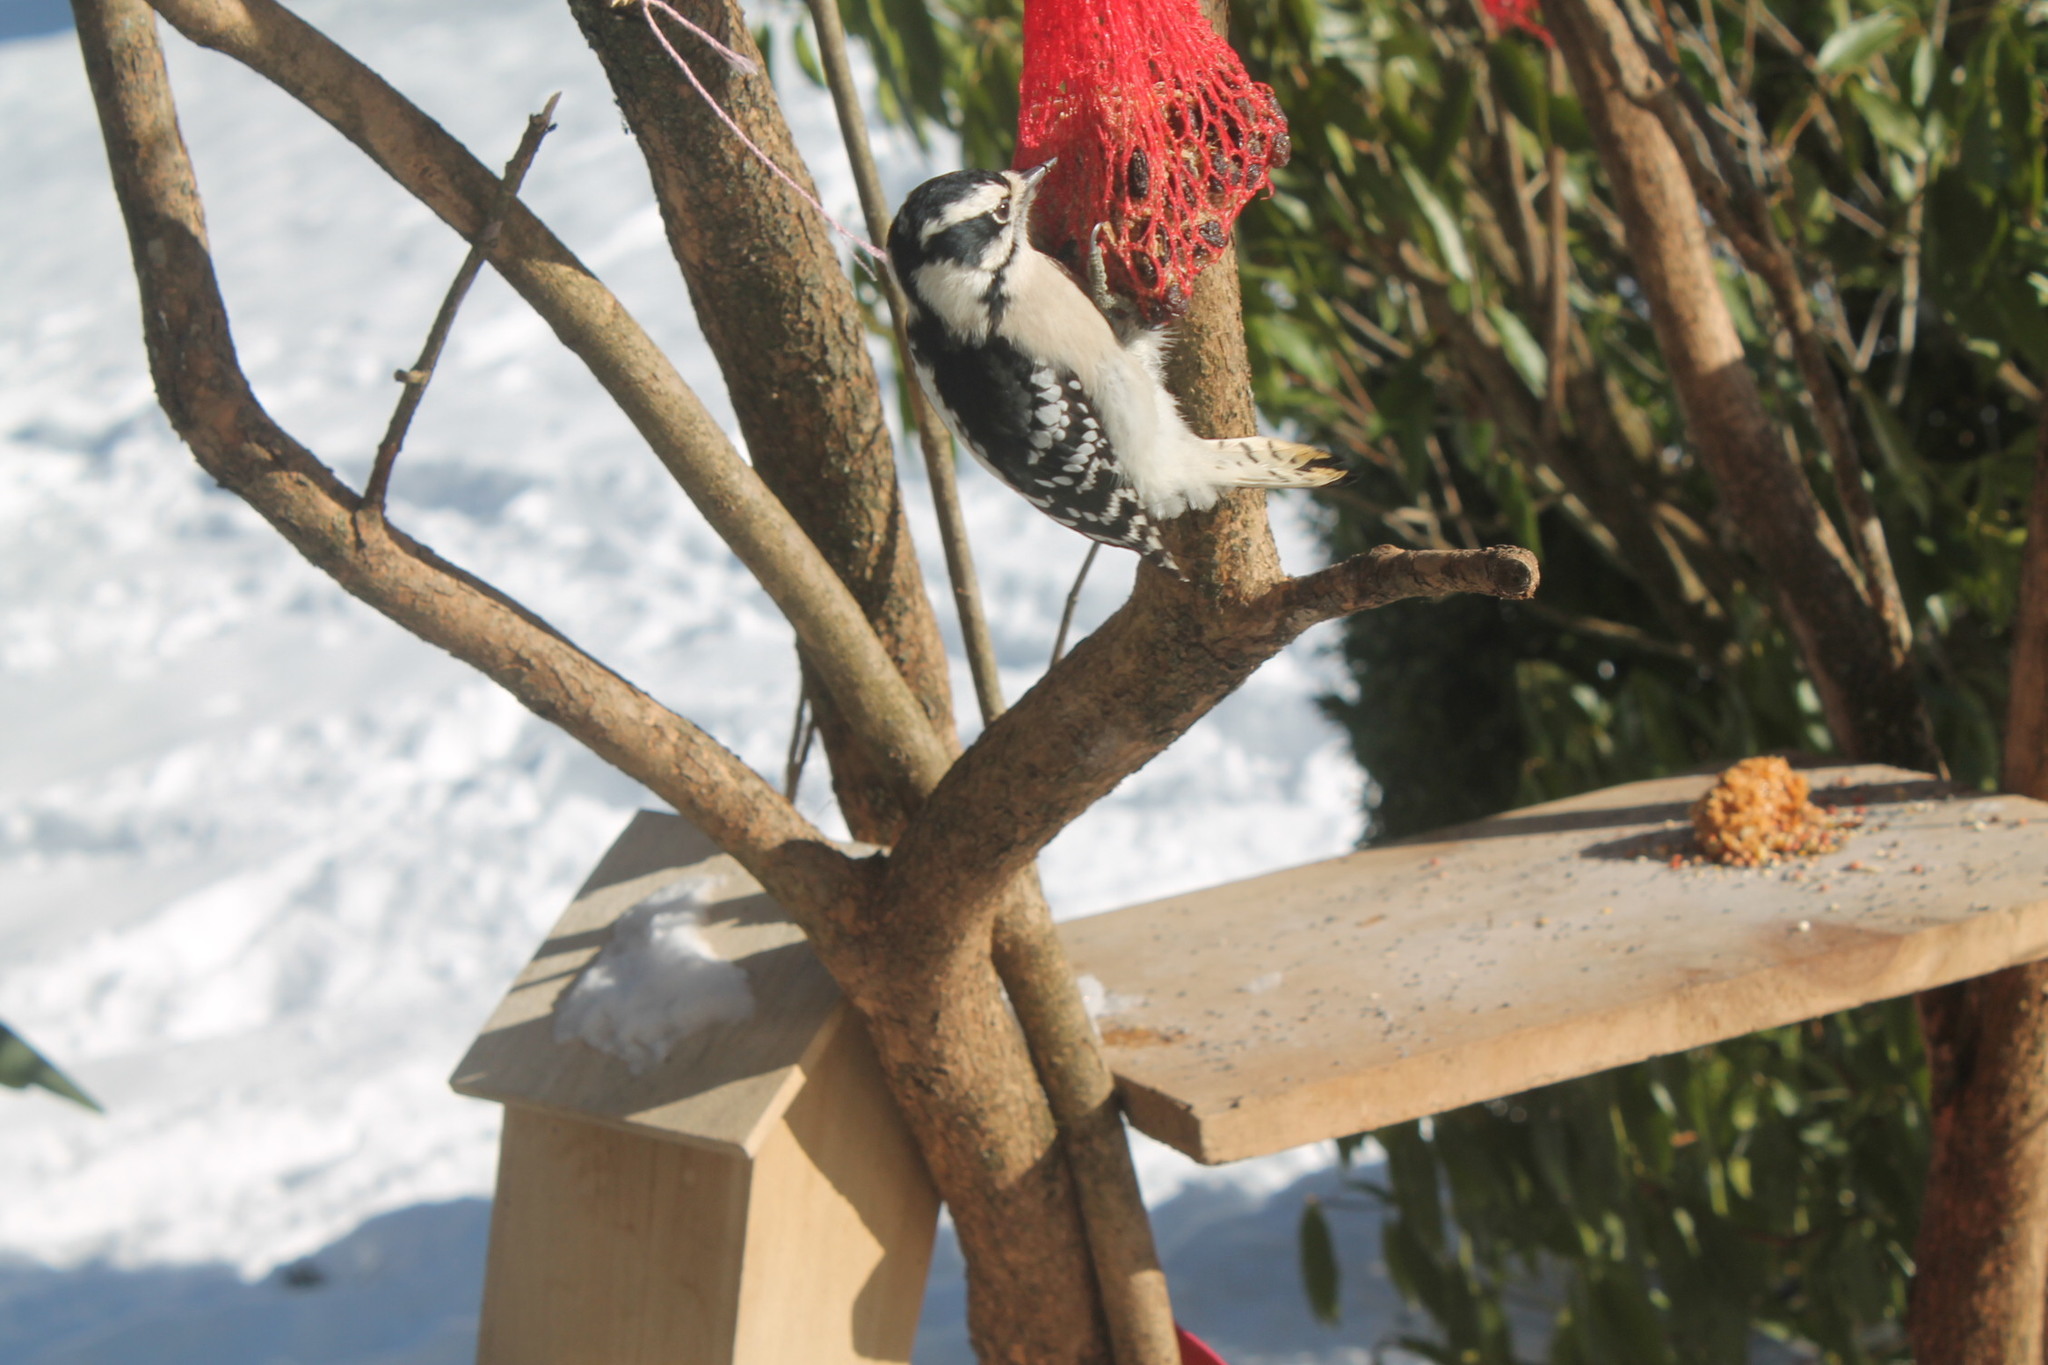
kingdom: Animalia
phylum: Chordata
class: Aves
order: Piciformes
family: Picidae
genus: Dryobates
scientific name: Dryobates pubescens
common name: Downy woodpecker
